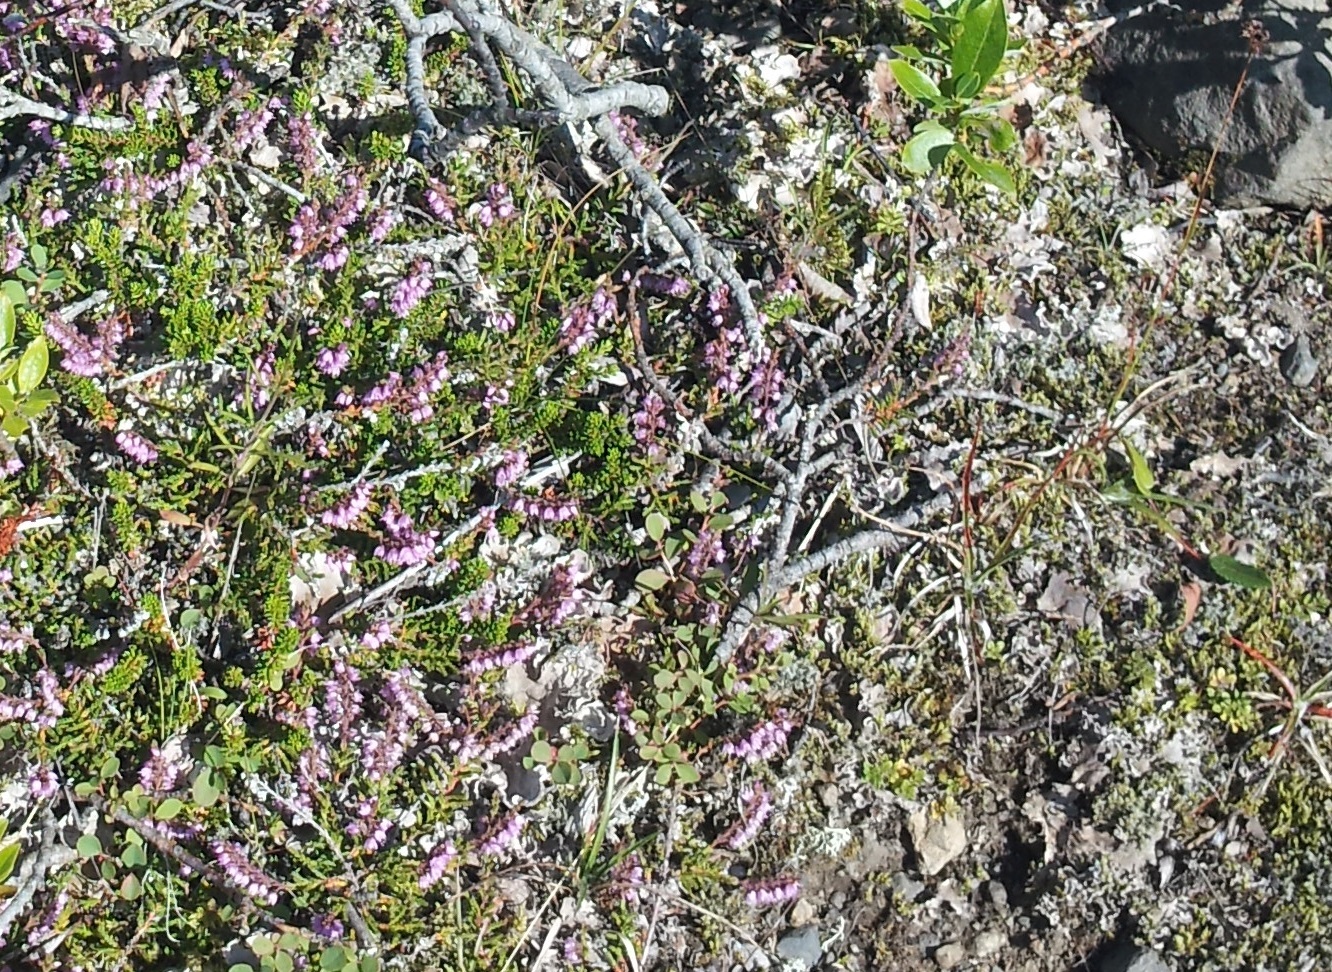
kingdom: Plantae
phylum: Tracheophyta
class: Magnoliopsida
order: Ericales
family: Ericaceae
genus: Calluna
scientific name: Calluna vulgaris
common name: Heather
